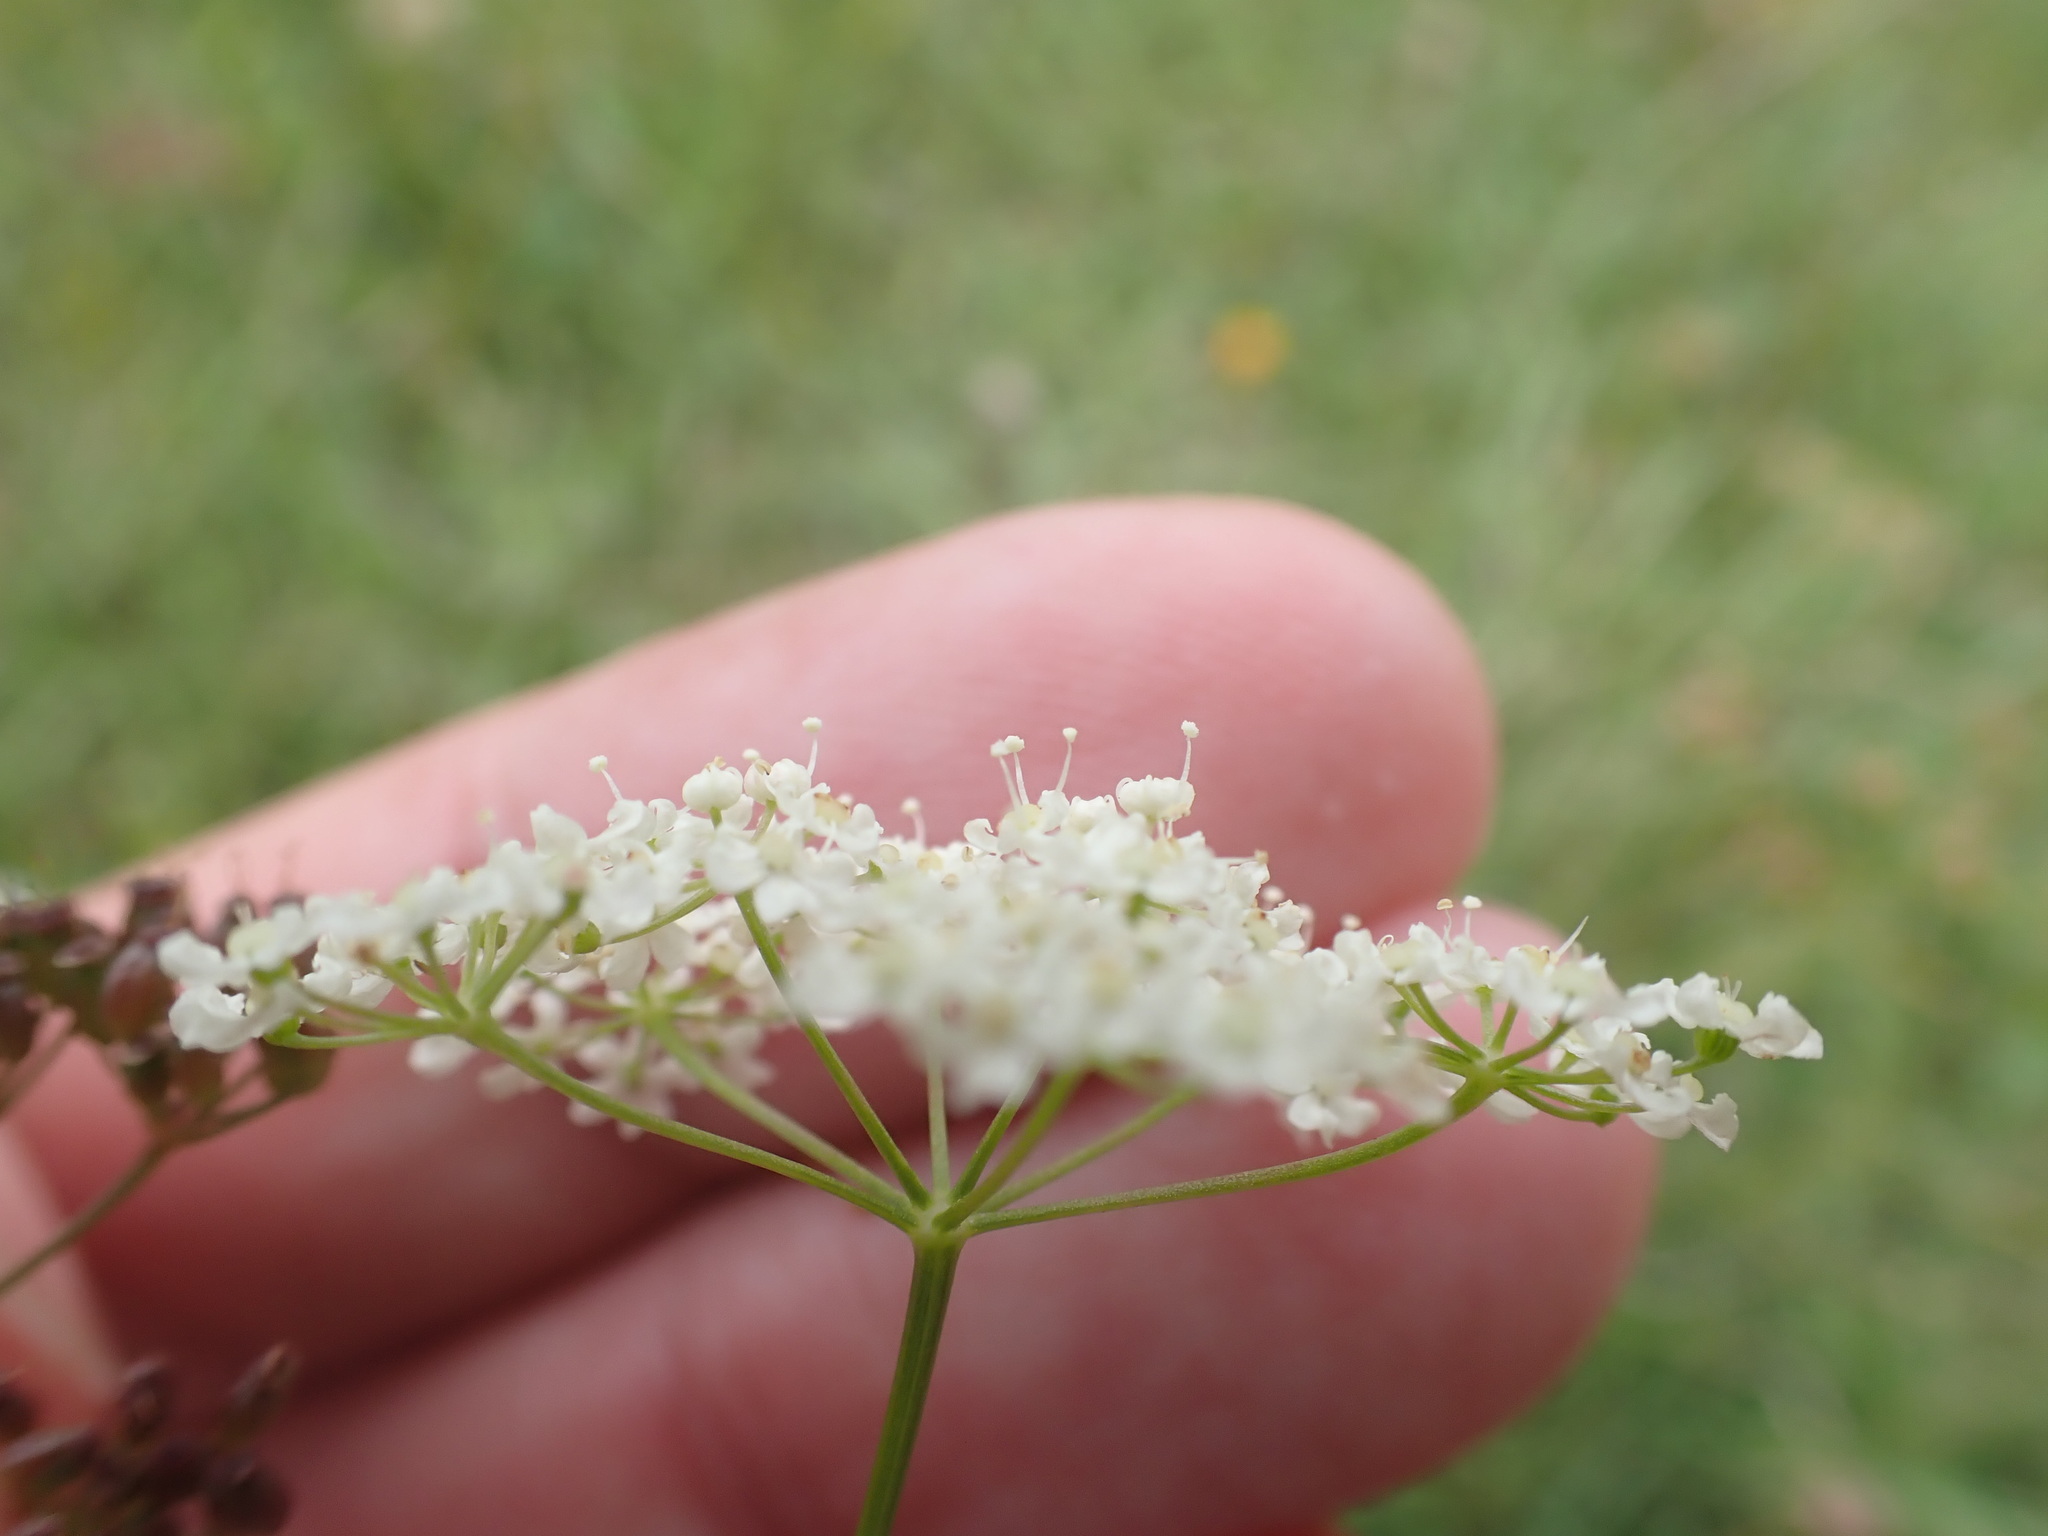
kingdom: Plantae
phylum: Tracheophyta
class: Magnoliopsida
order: Apiales
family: Apiaceae
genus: Pimpinella
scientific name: Pimpinella saxifraga
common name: Burnet-saxifrage
